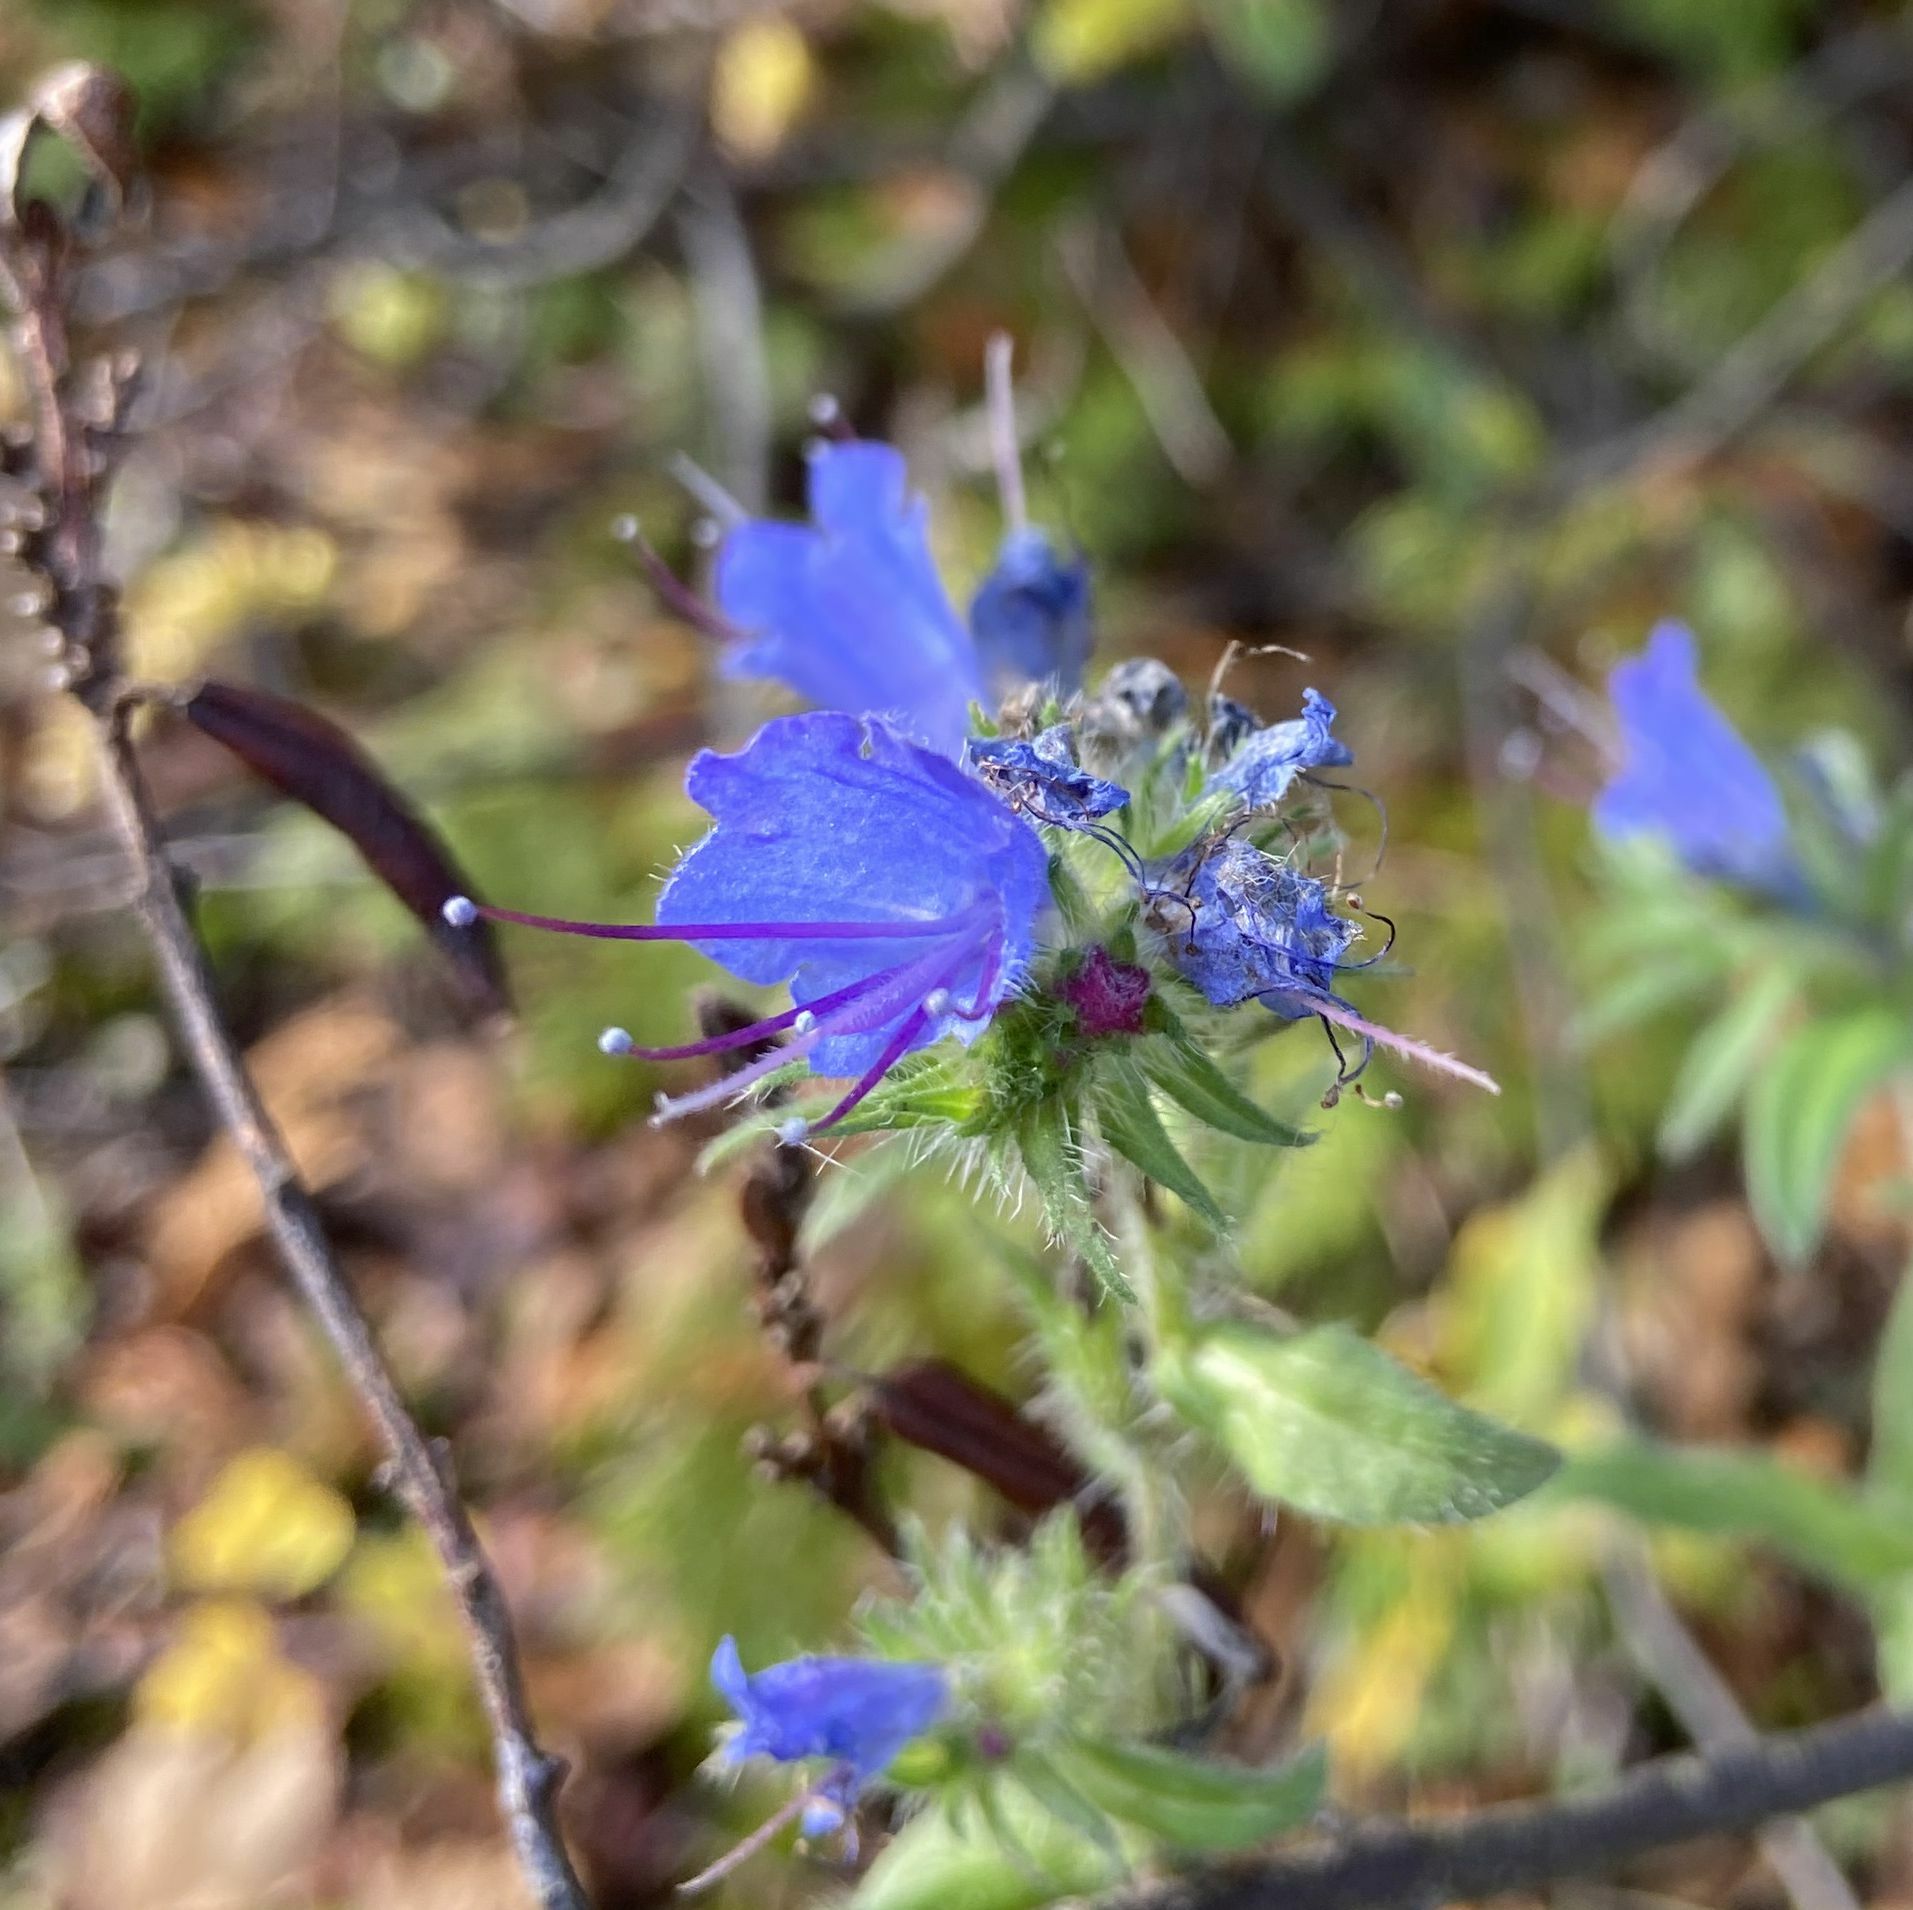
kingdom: Plantae
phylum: Tracheophyta
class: Magnoliopsida
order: Boraginales
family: Boraginaceae
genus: Echium
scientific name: Echium vulgare
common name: Common viper's bugloss
